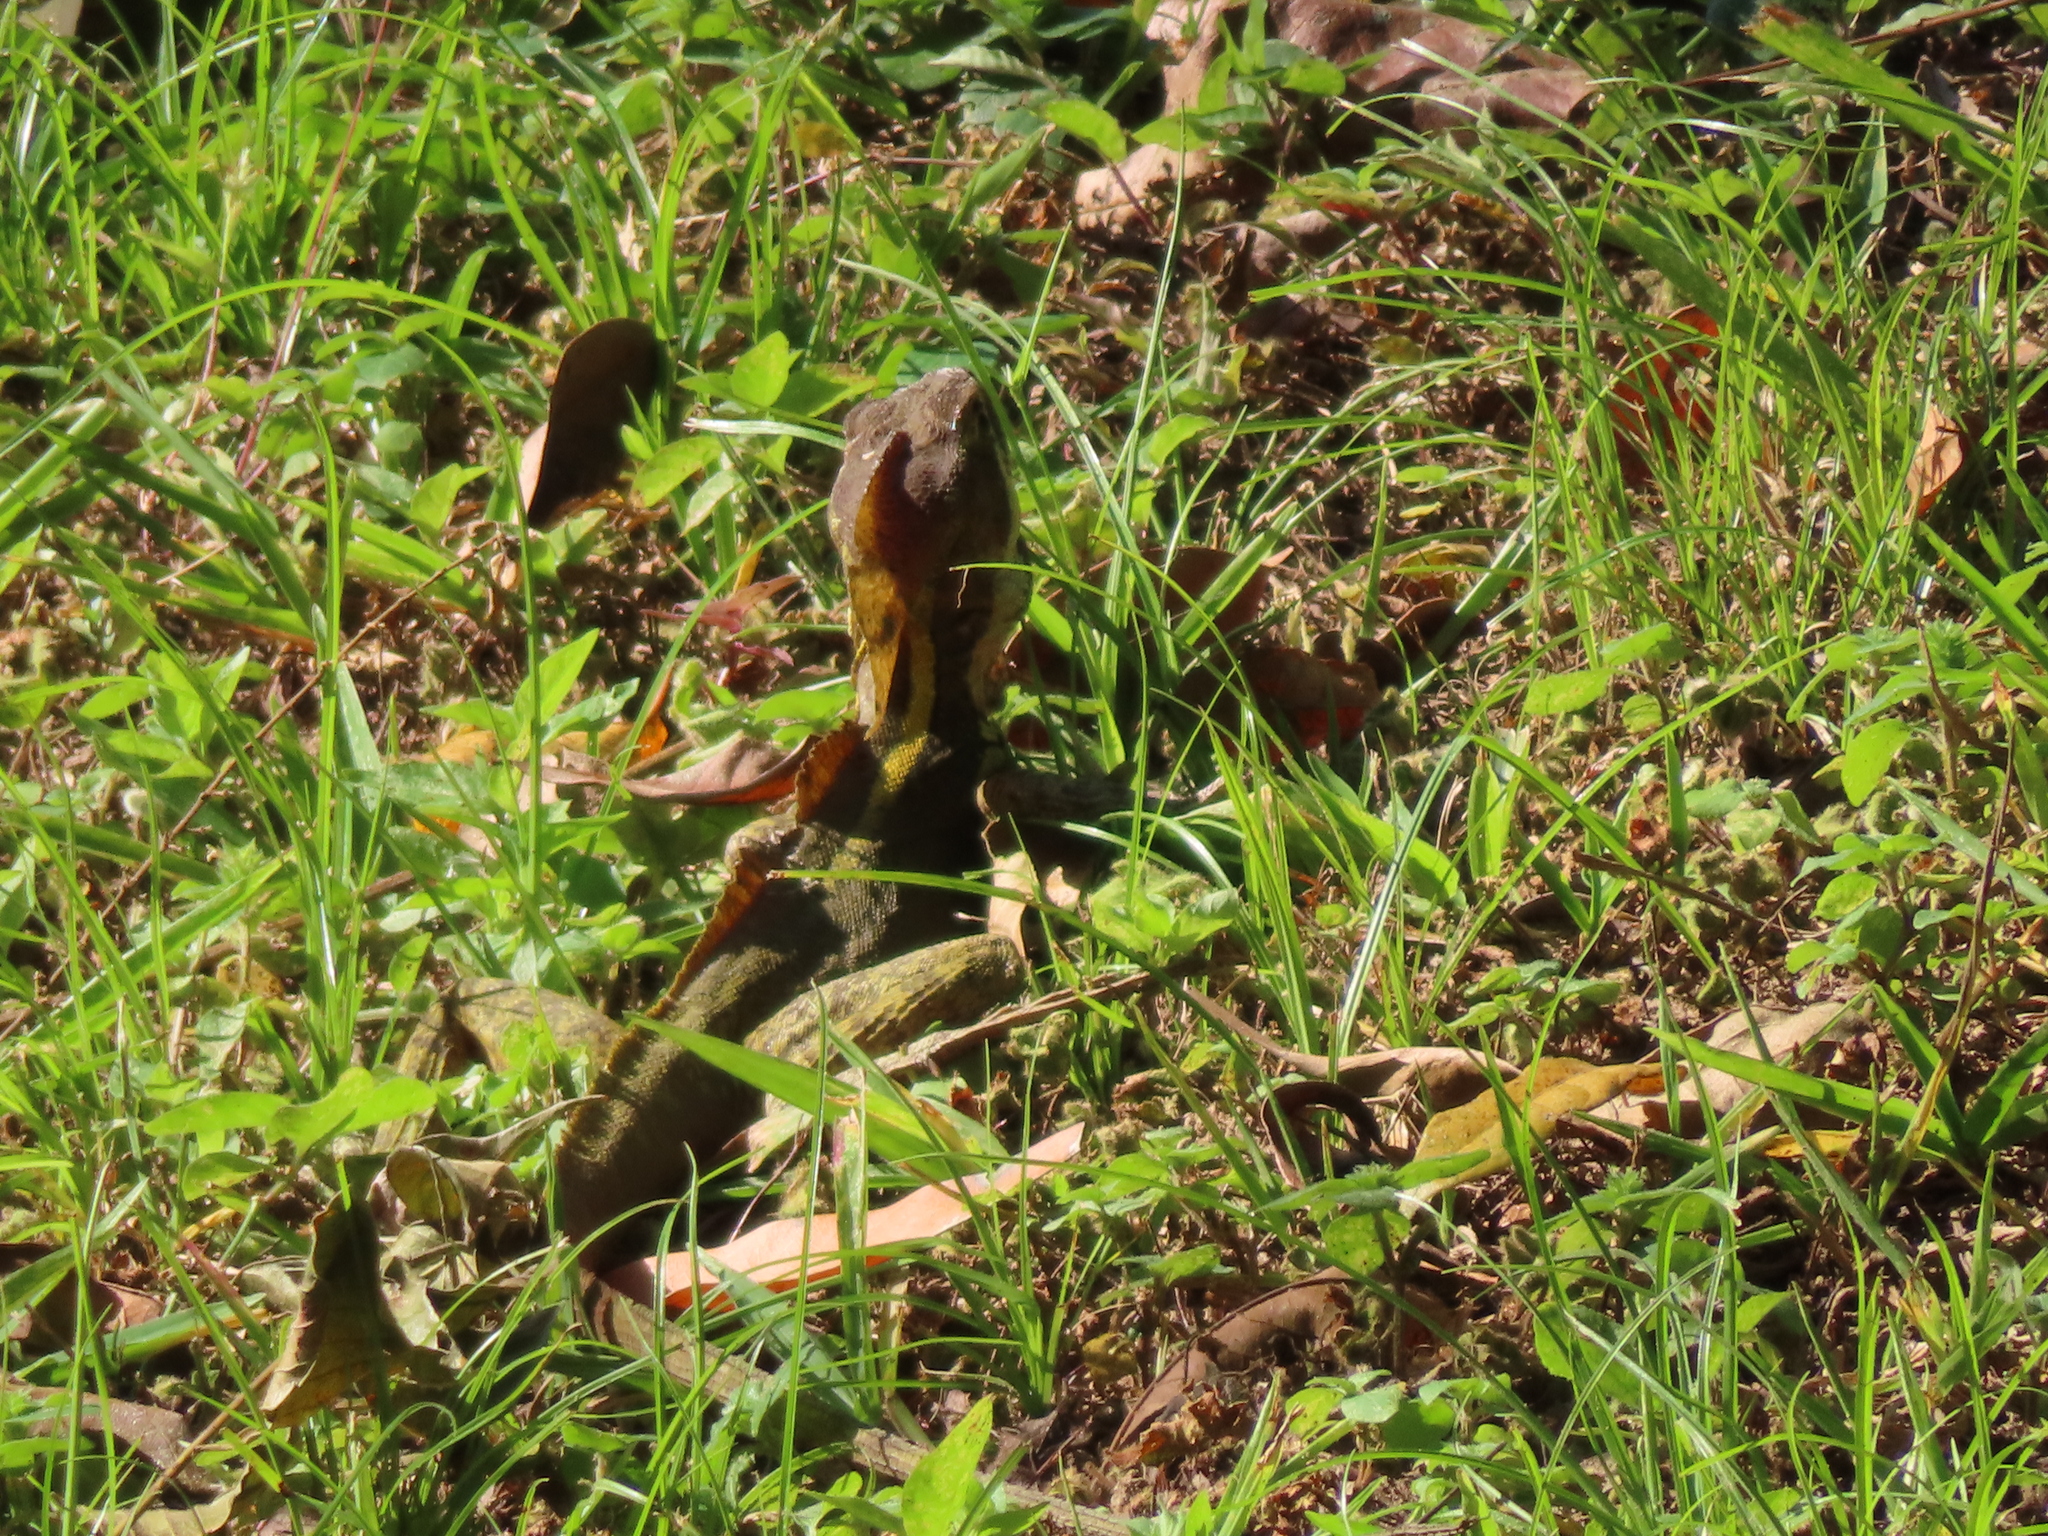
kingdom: Animalia
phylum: Chordata
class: Squamata
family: Corytophanidae
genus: Basiliscus
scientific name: Basiliscus vittatus
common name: Brown basilisk
